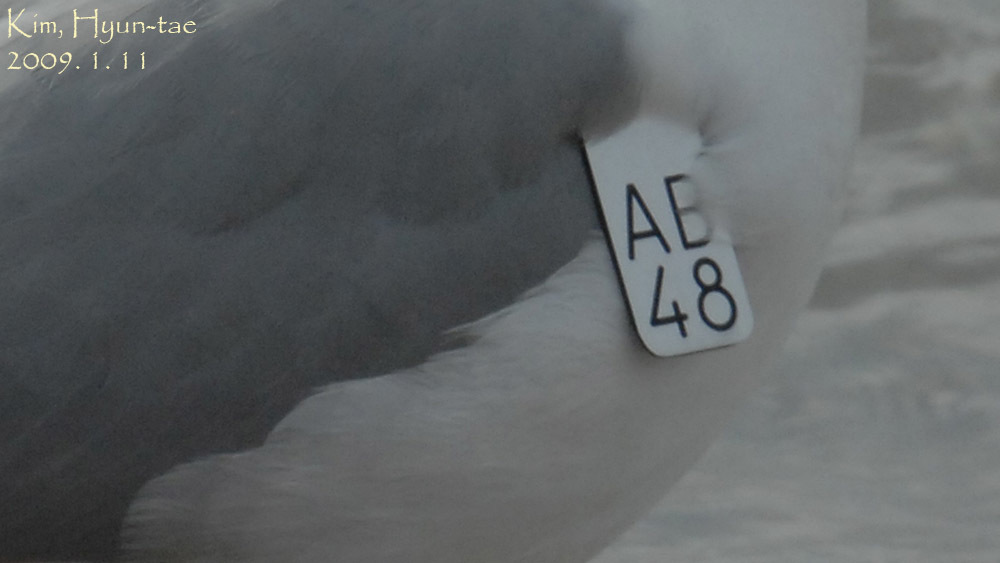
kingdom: Animalia
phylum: Chordata
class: Aves
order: Charadriiformes
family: Laridae
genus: Larus
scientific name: Larus vegae
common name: Vega gull
